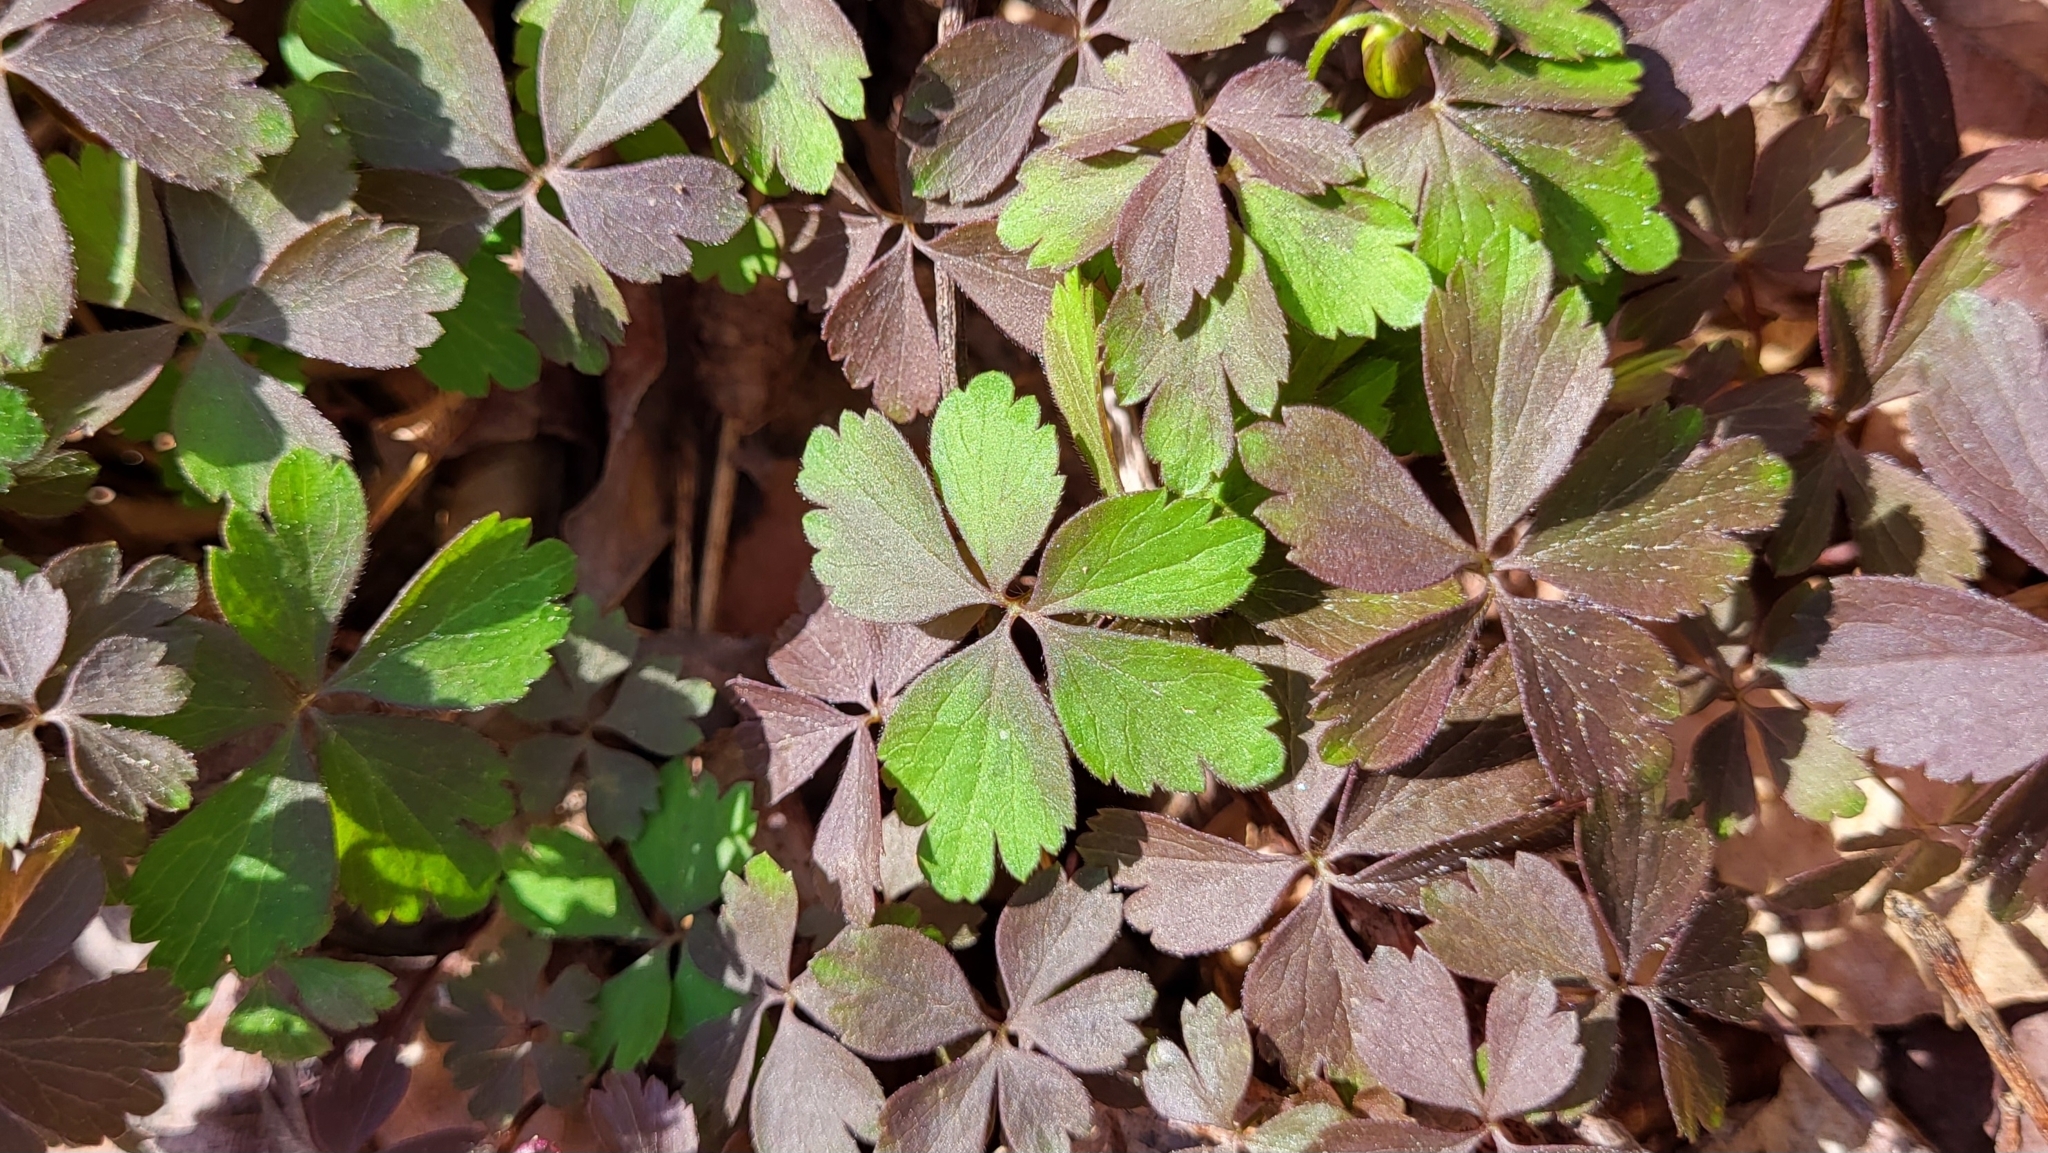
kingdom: Plantae
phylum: Tracheophyta
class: Magnoliopsida
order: Ranunculales
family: Ranunculaceae
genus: Anemone
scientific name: Anemone quinquefolia
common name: Wood anemone
